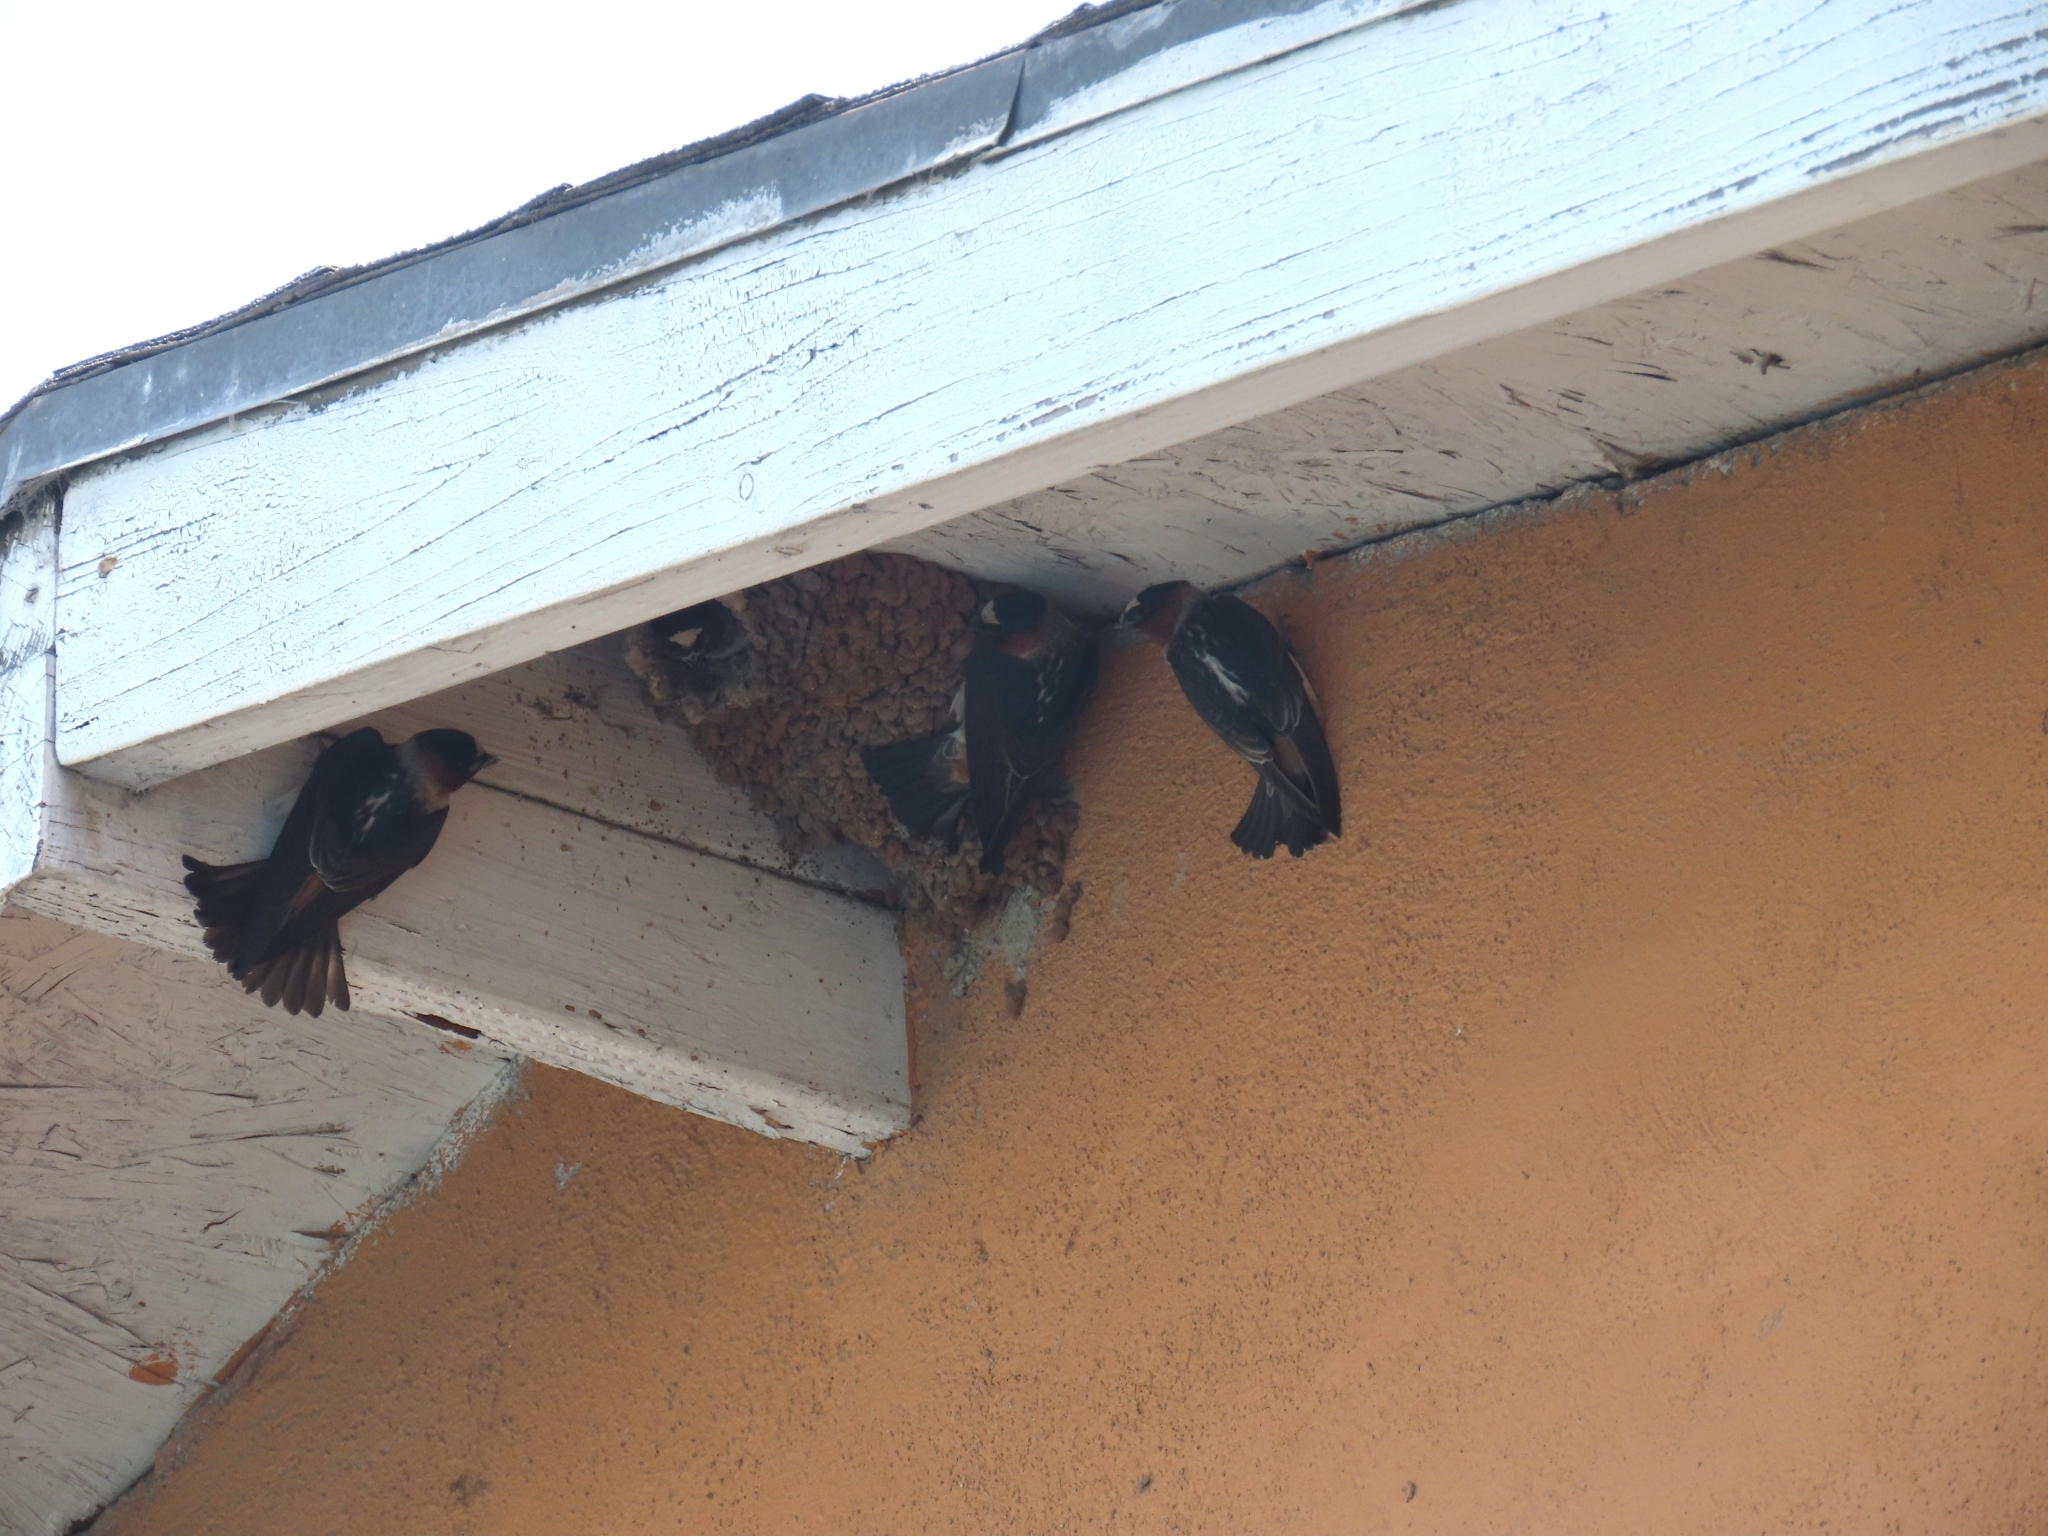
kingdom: Animalia
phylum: Chordata
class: Aves
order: Passeriformes
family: Hirundinidae
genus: Petrochelidon
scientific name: Petrochelidon pyrrhonota
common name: American cliff swallow
